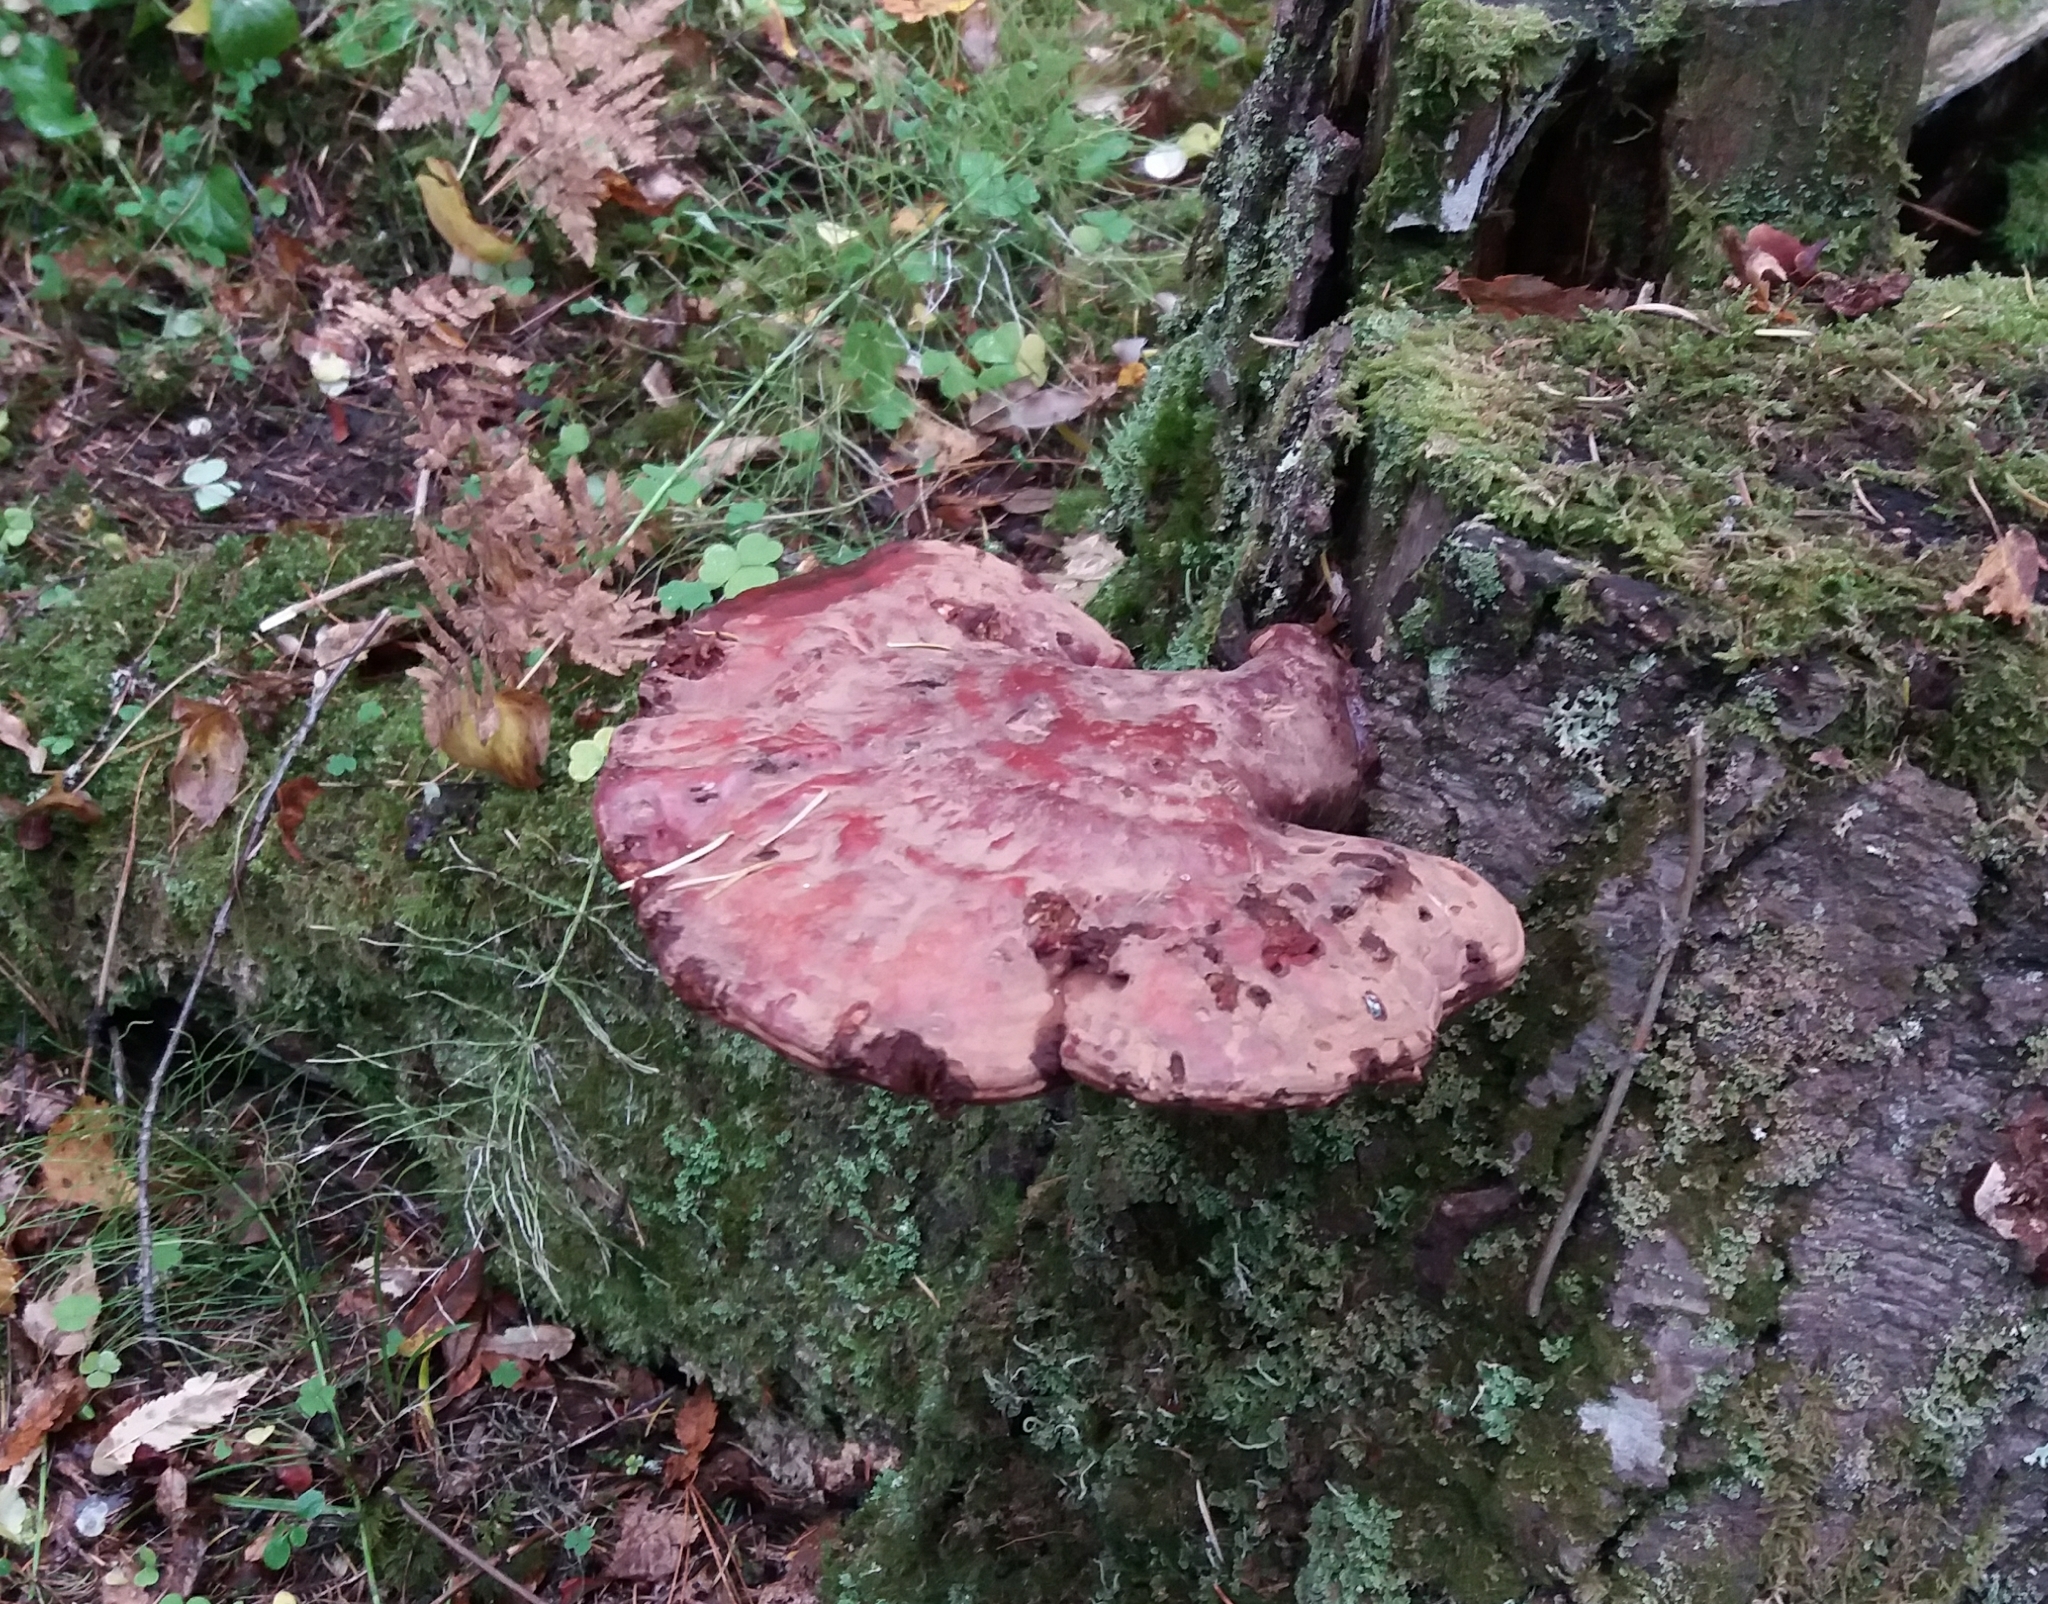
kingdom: Fungi
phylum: Basidiomycota
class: Agaricomycetes
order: Polyporales
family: Polyporaceae
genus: Ganoderma
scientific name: Ganoderma lucidum
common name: Lacquered bracket
